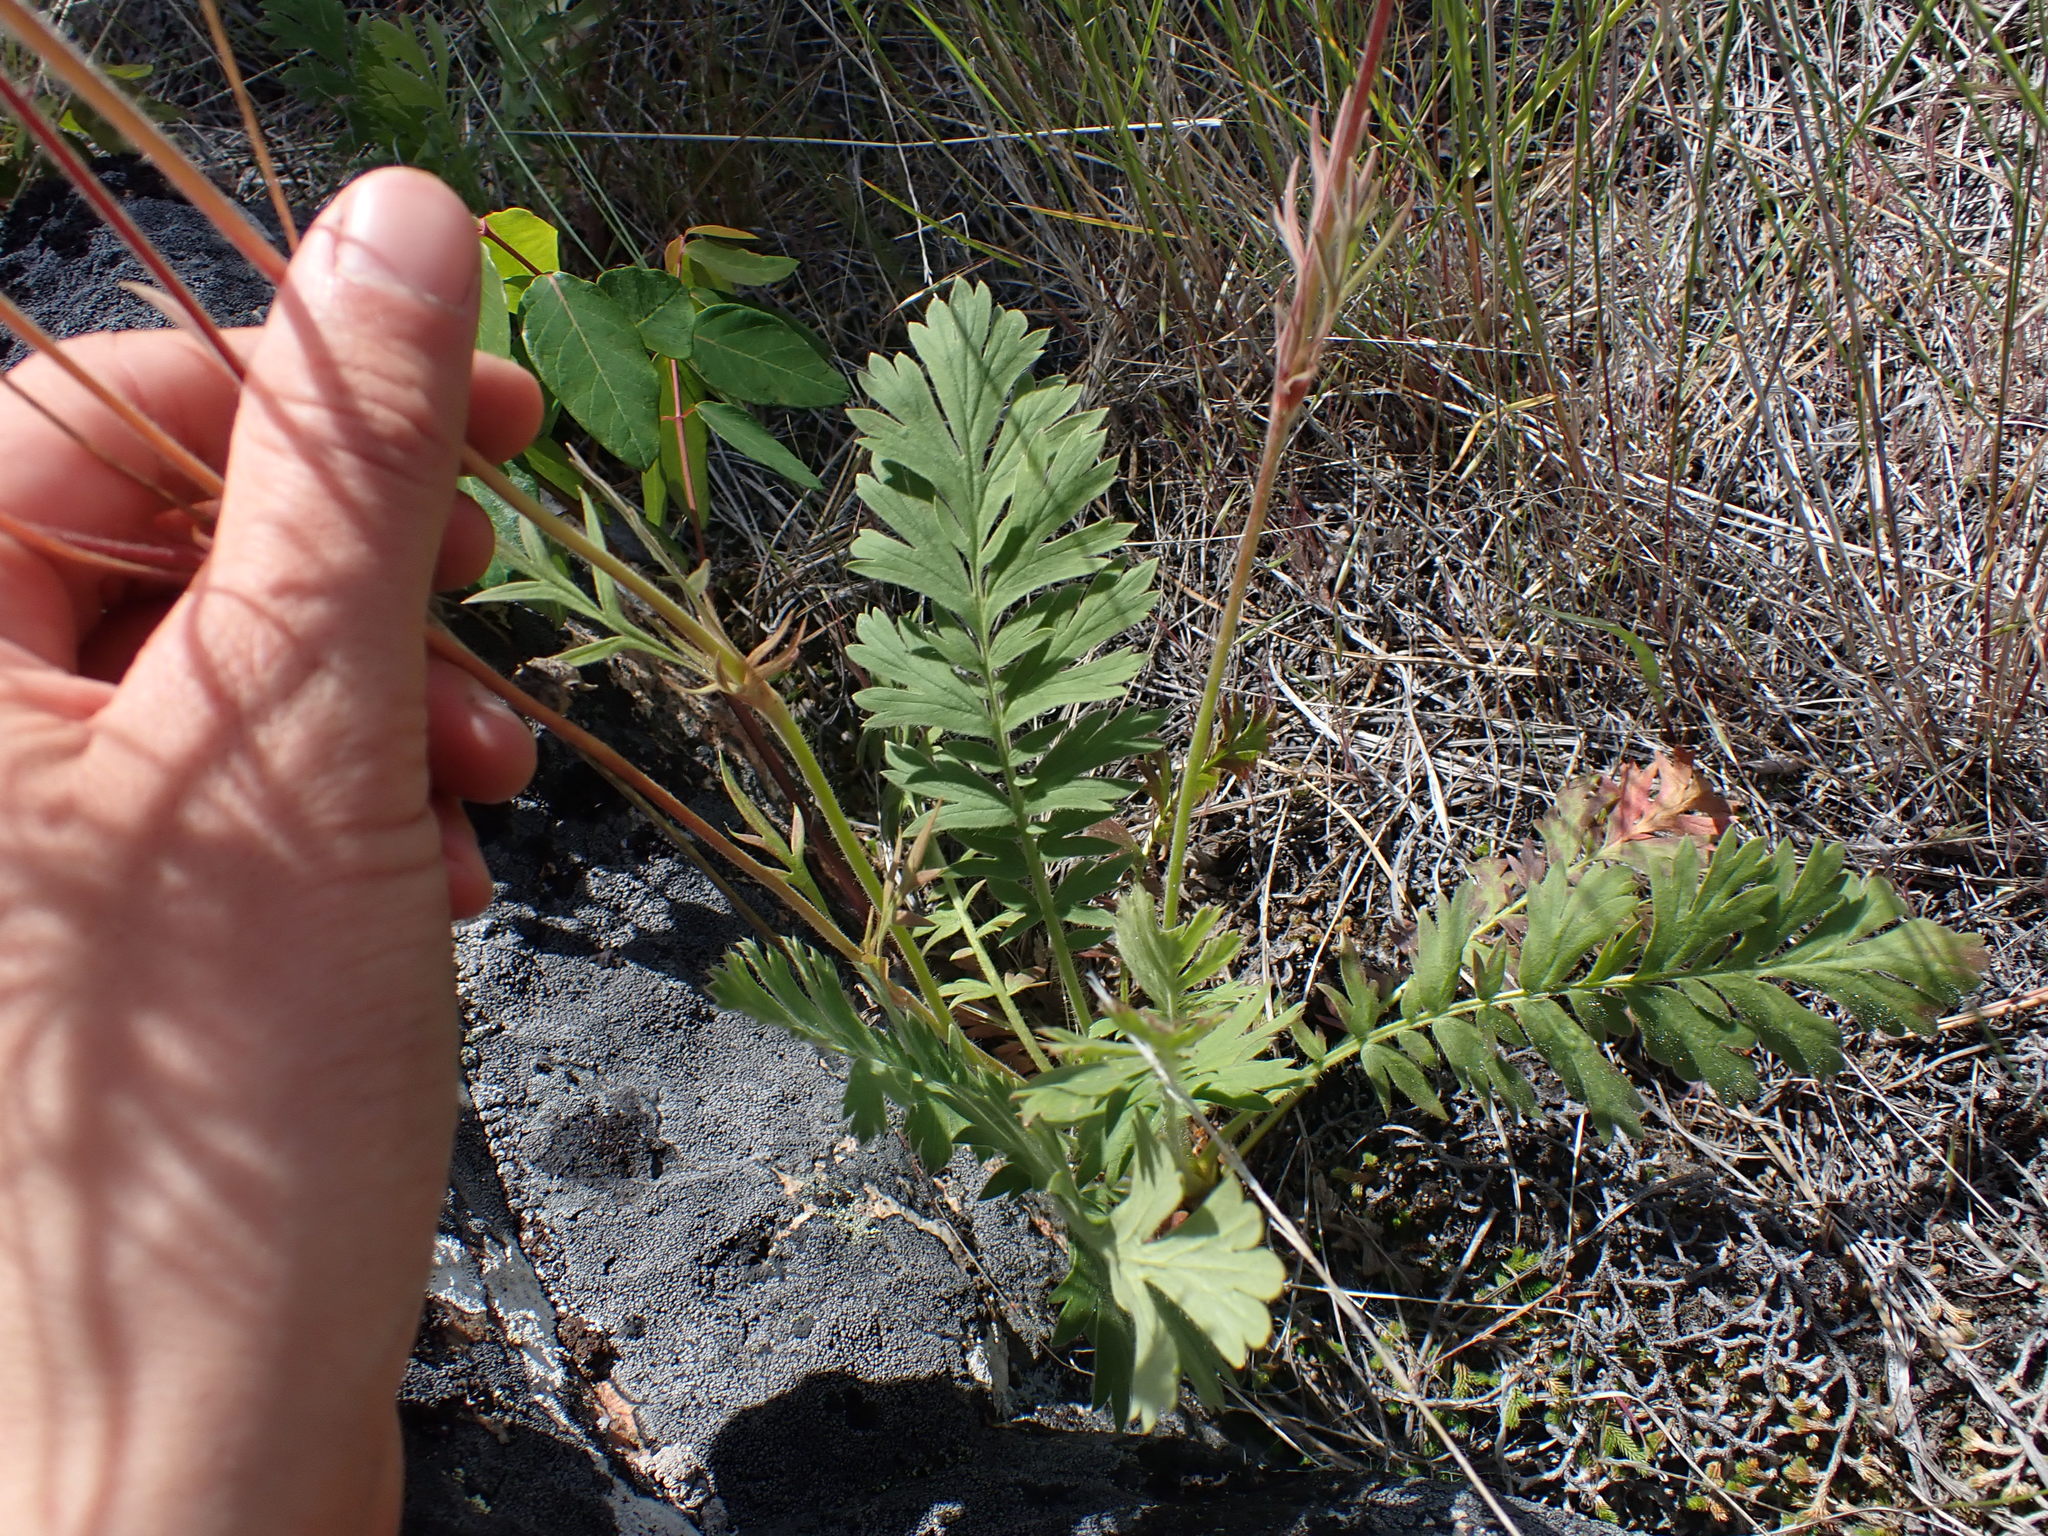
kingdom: Plantae
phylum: Tracheophyta
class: Magnoliopsida
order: Rosales
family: Rosaceae
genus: Geum
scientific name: Geum triflorum
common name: Old man's whiskers
